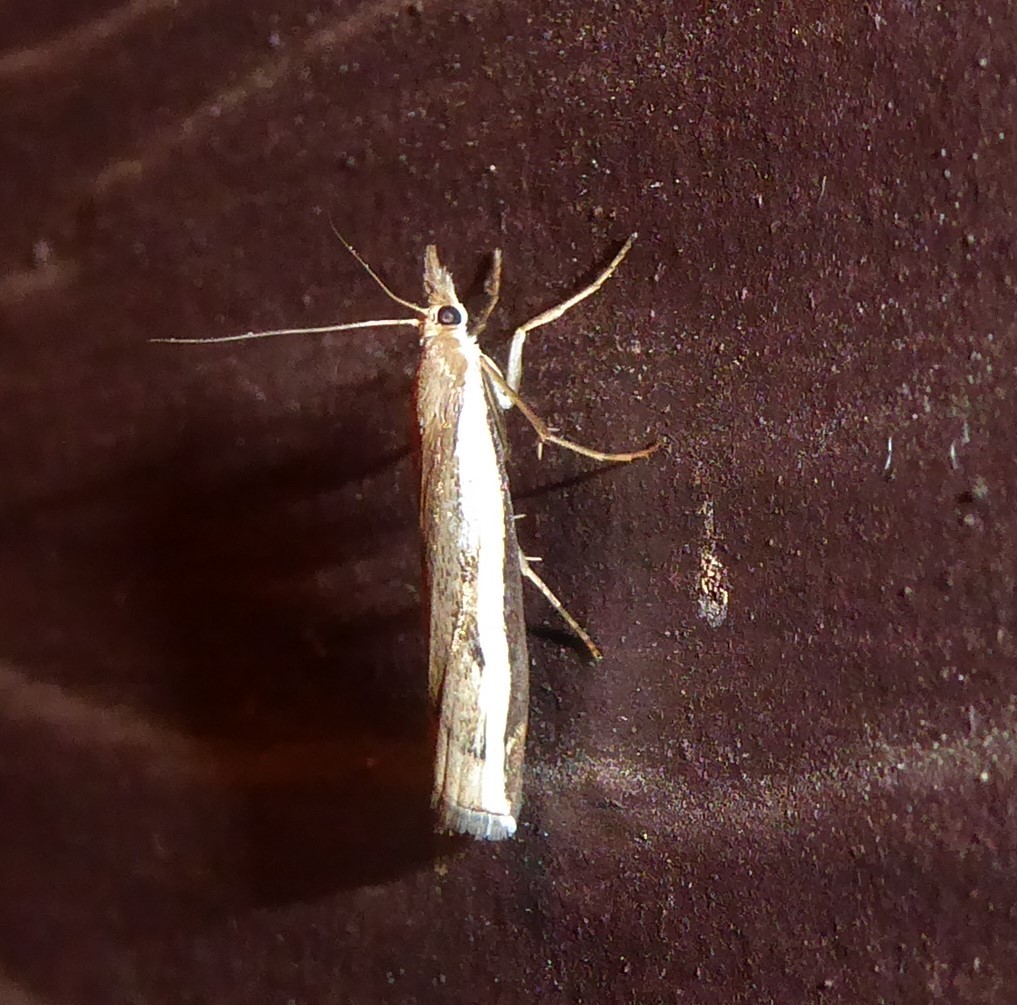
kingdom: Animalia
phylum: Arthropoda
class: Insecta
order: Lepidoptera
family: Crambidae
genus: Orocrambus
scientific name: Orocrambus flexuosellus
